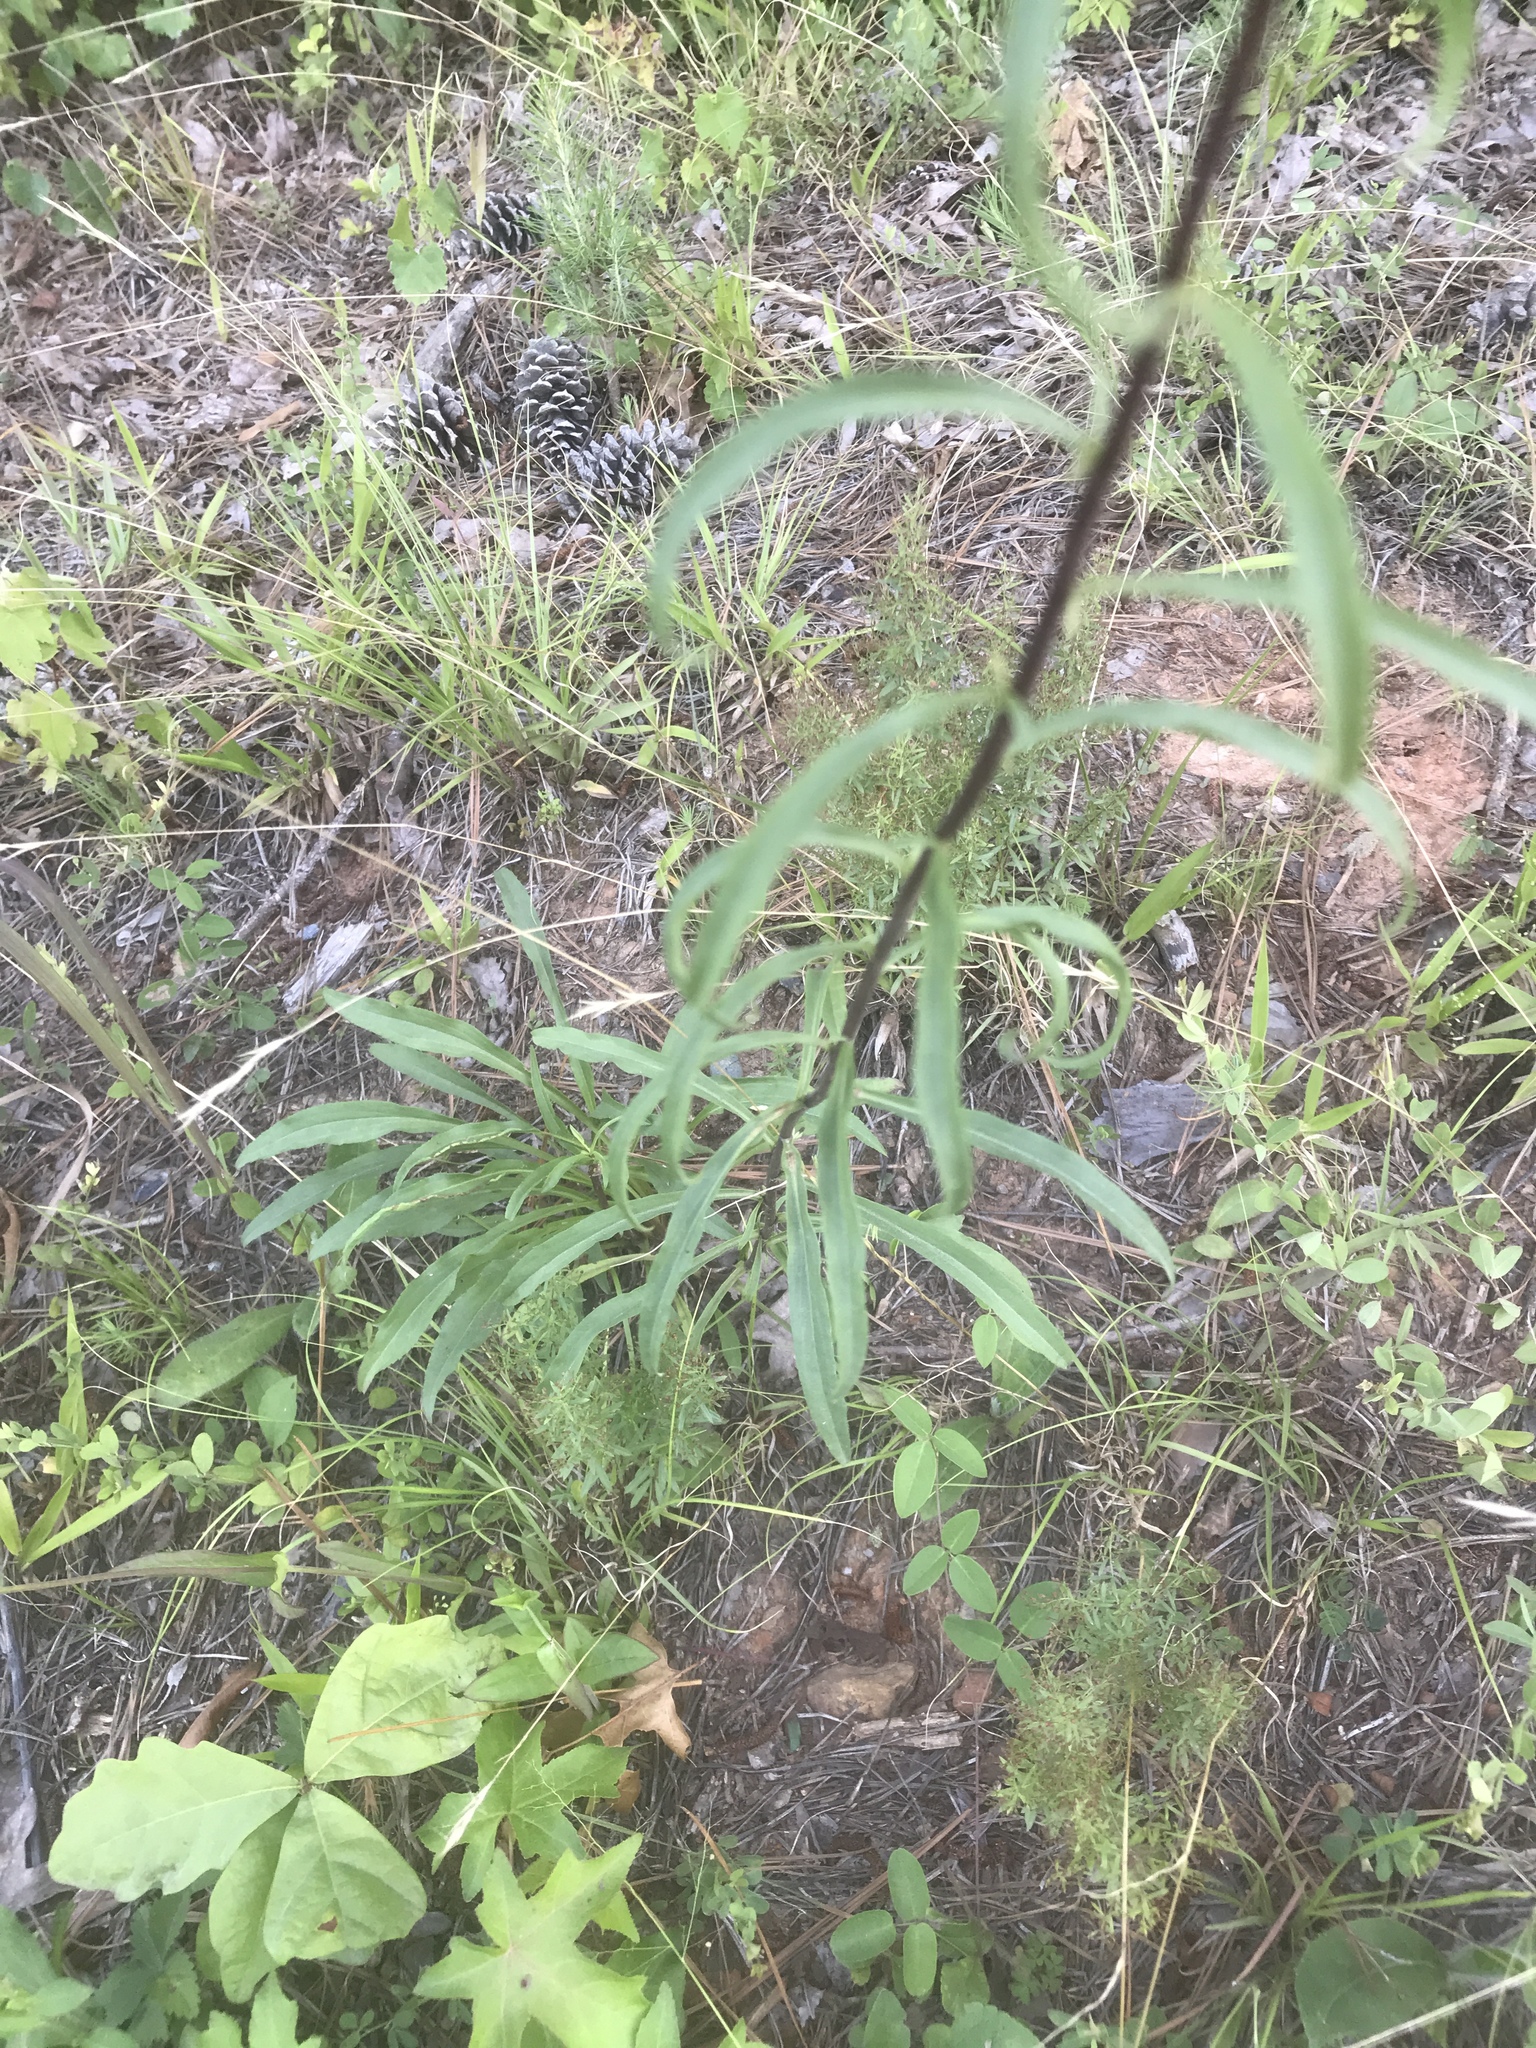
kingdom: Plantae
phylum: Tracheophyta
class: Magnoliopsida
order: Asterales
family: Asteraceae
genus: Solidago
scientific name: Solidago pinetorum
